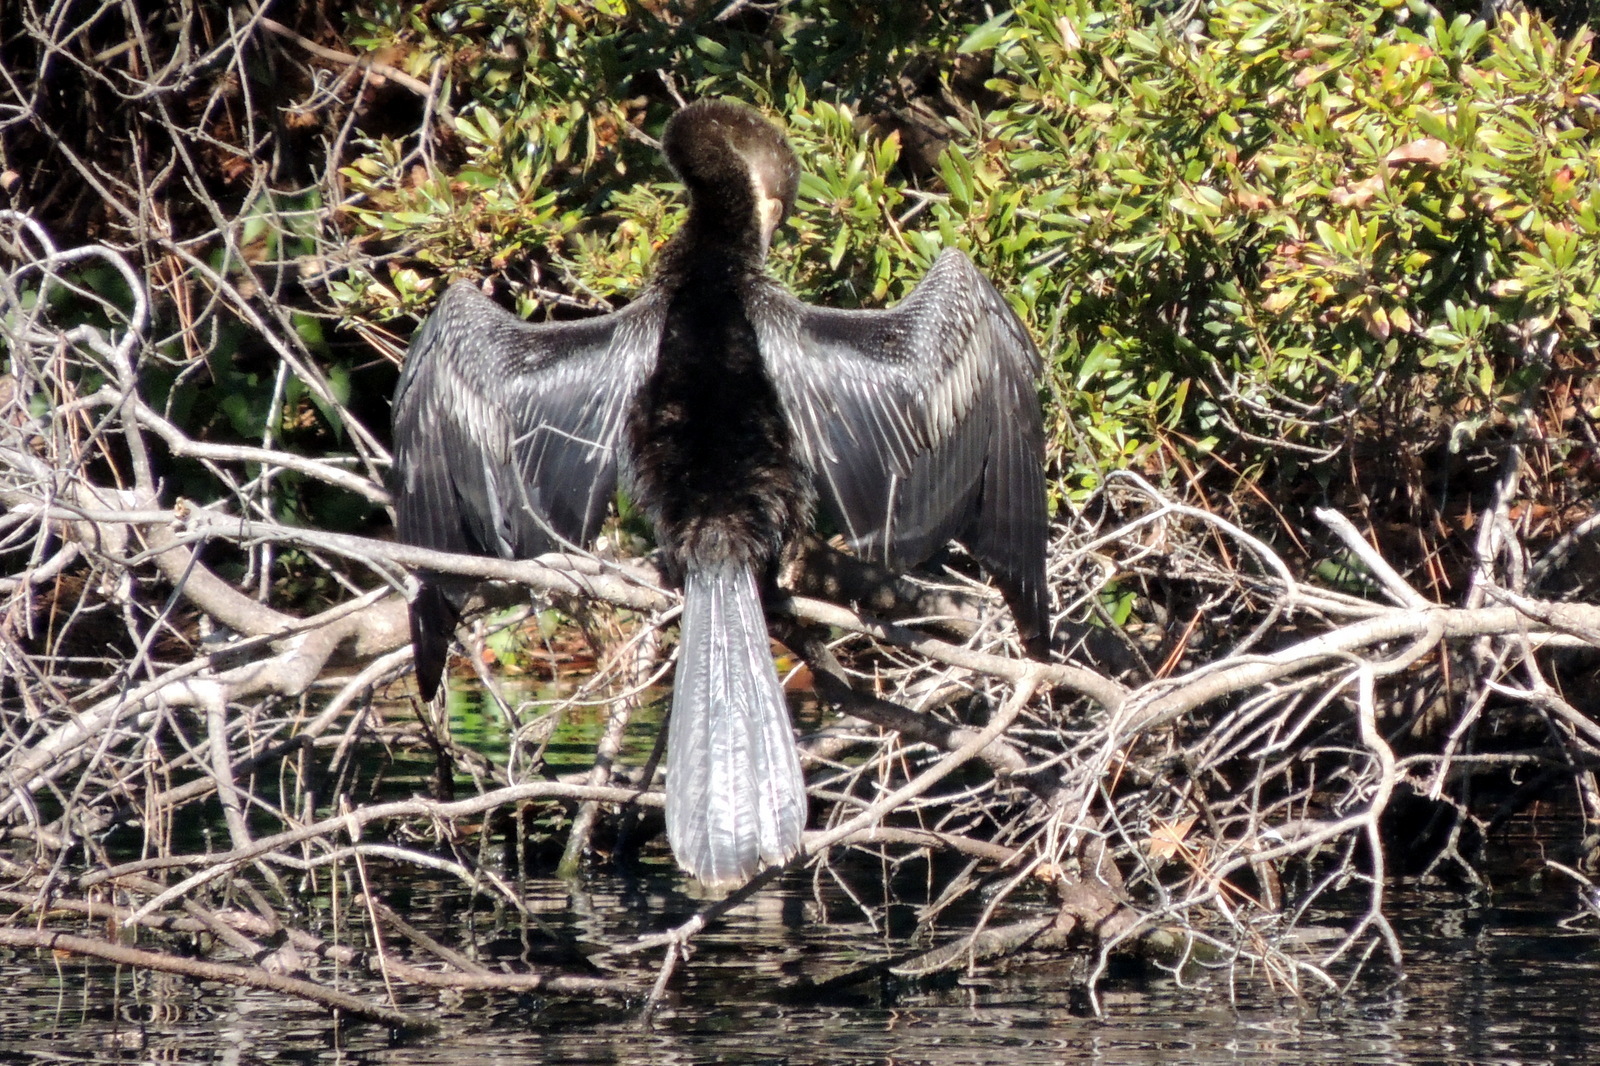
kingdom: Animalia
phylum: Chordata
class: Aves
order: Suliformes
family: Anhingidae
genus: Anhinga
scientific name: Anhinga anhinga
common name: Anhinga
